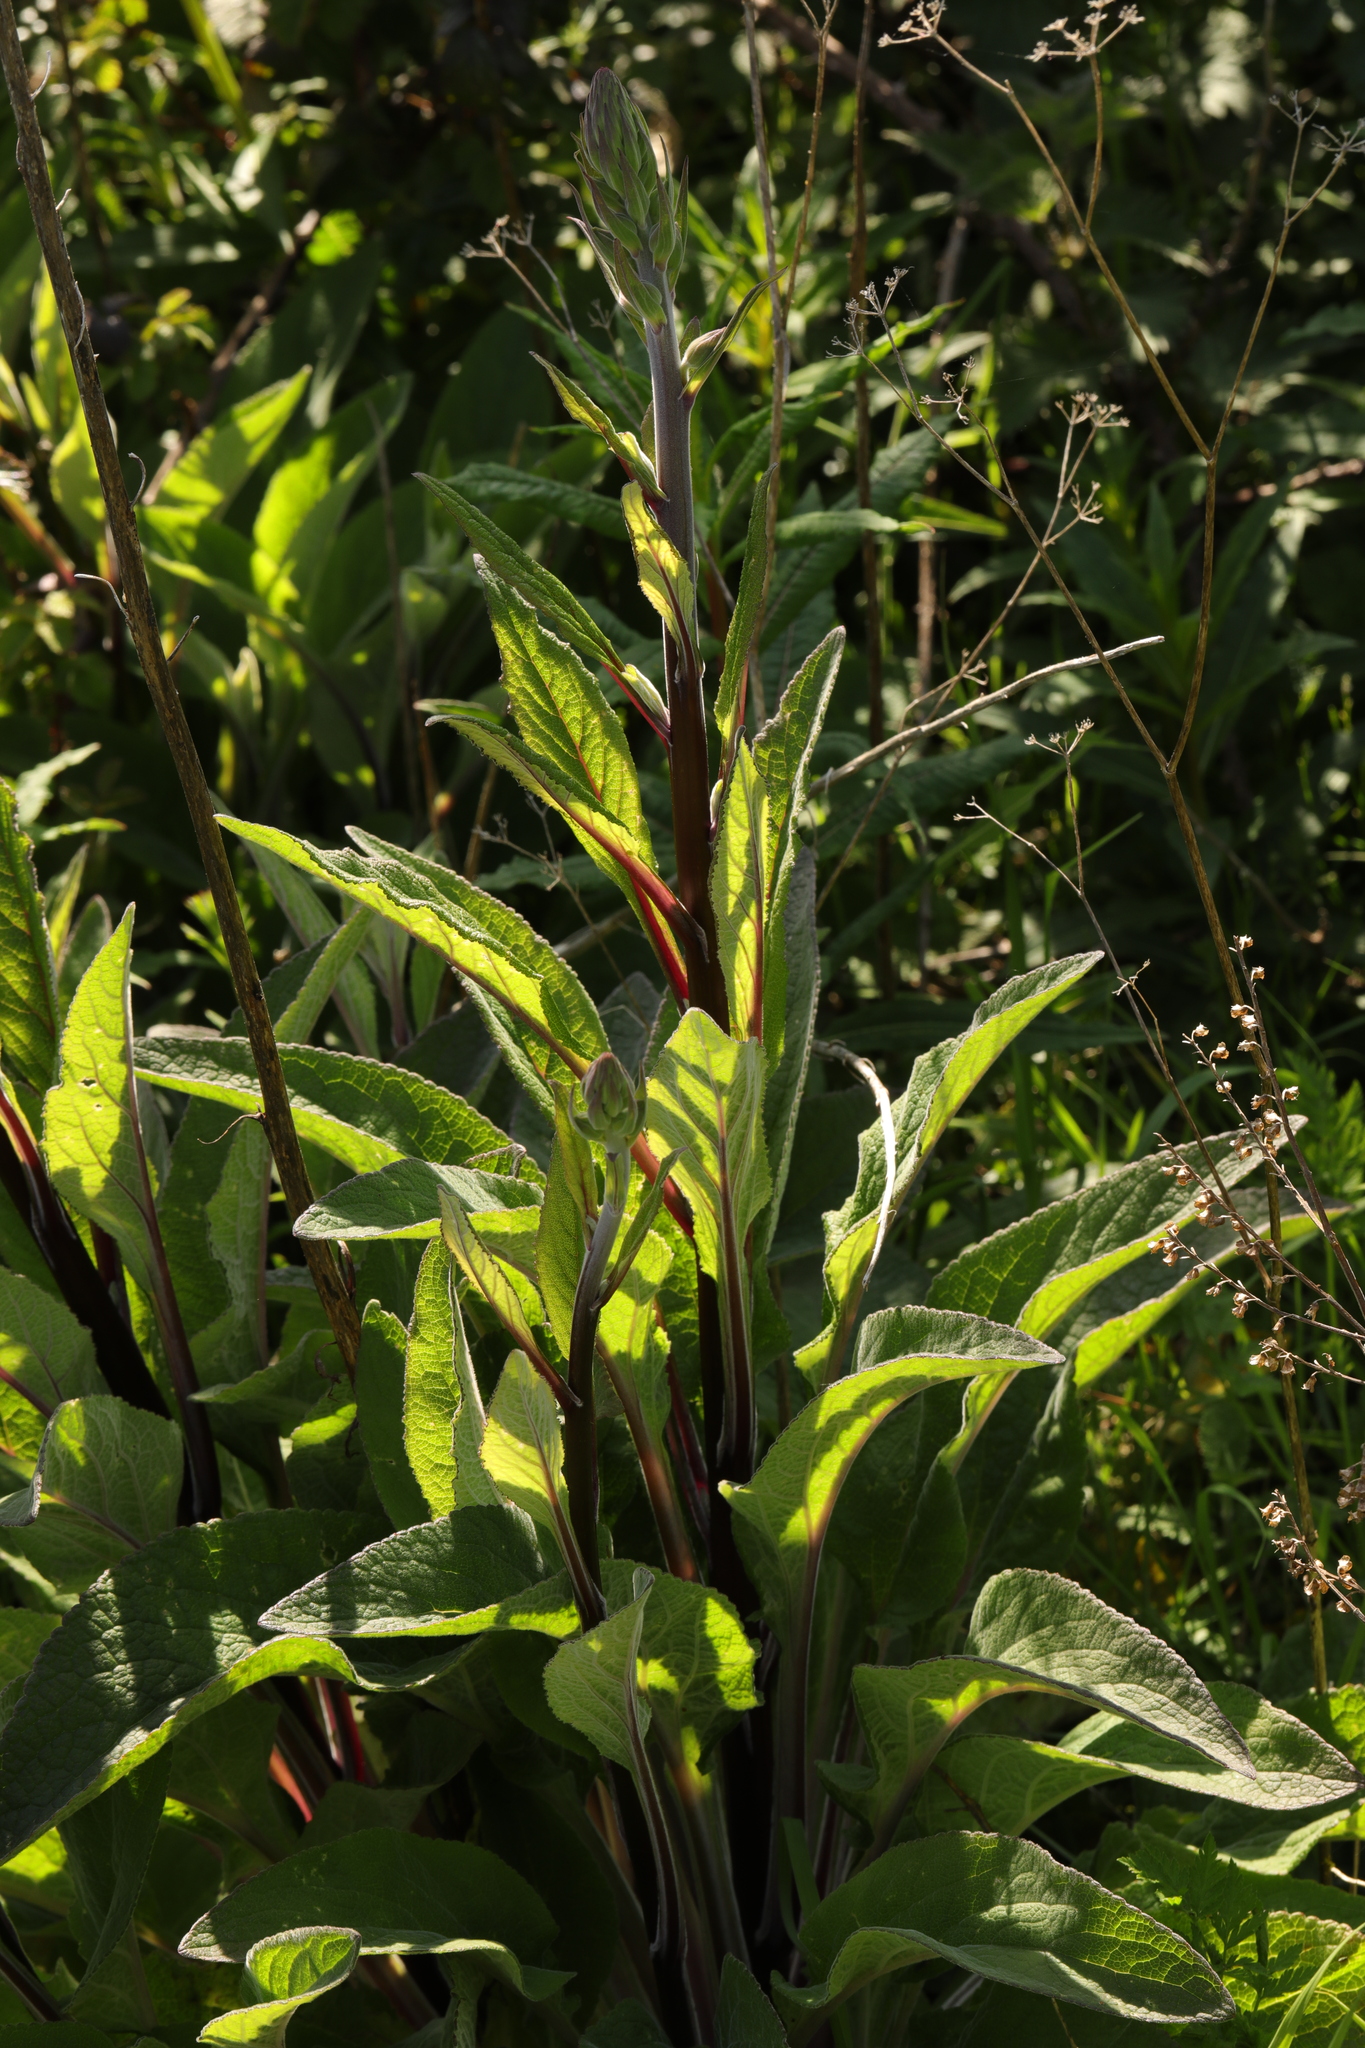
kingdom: Plantae
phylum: Tracheophyta
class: Magnoliopsida
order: Lamiales
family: Plantaginaceae
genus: Digitalis
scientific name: Digitalis purpurea
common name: Foxglove
